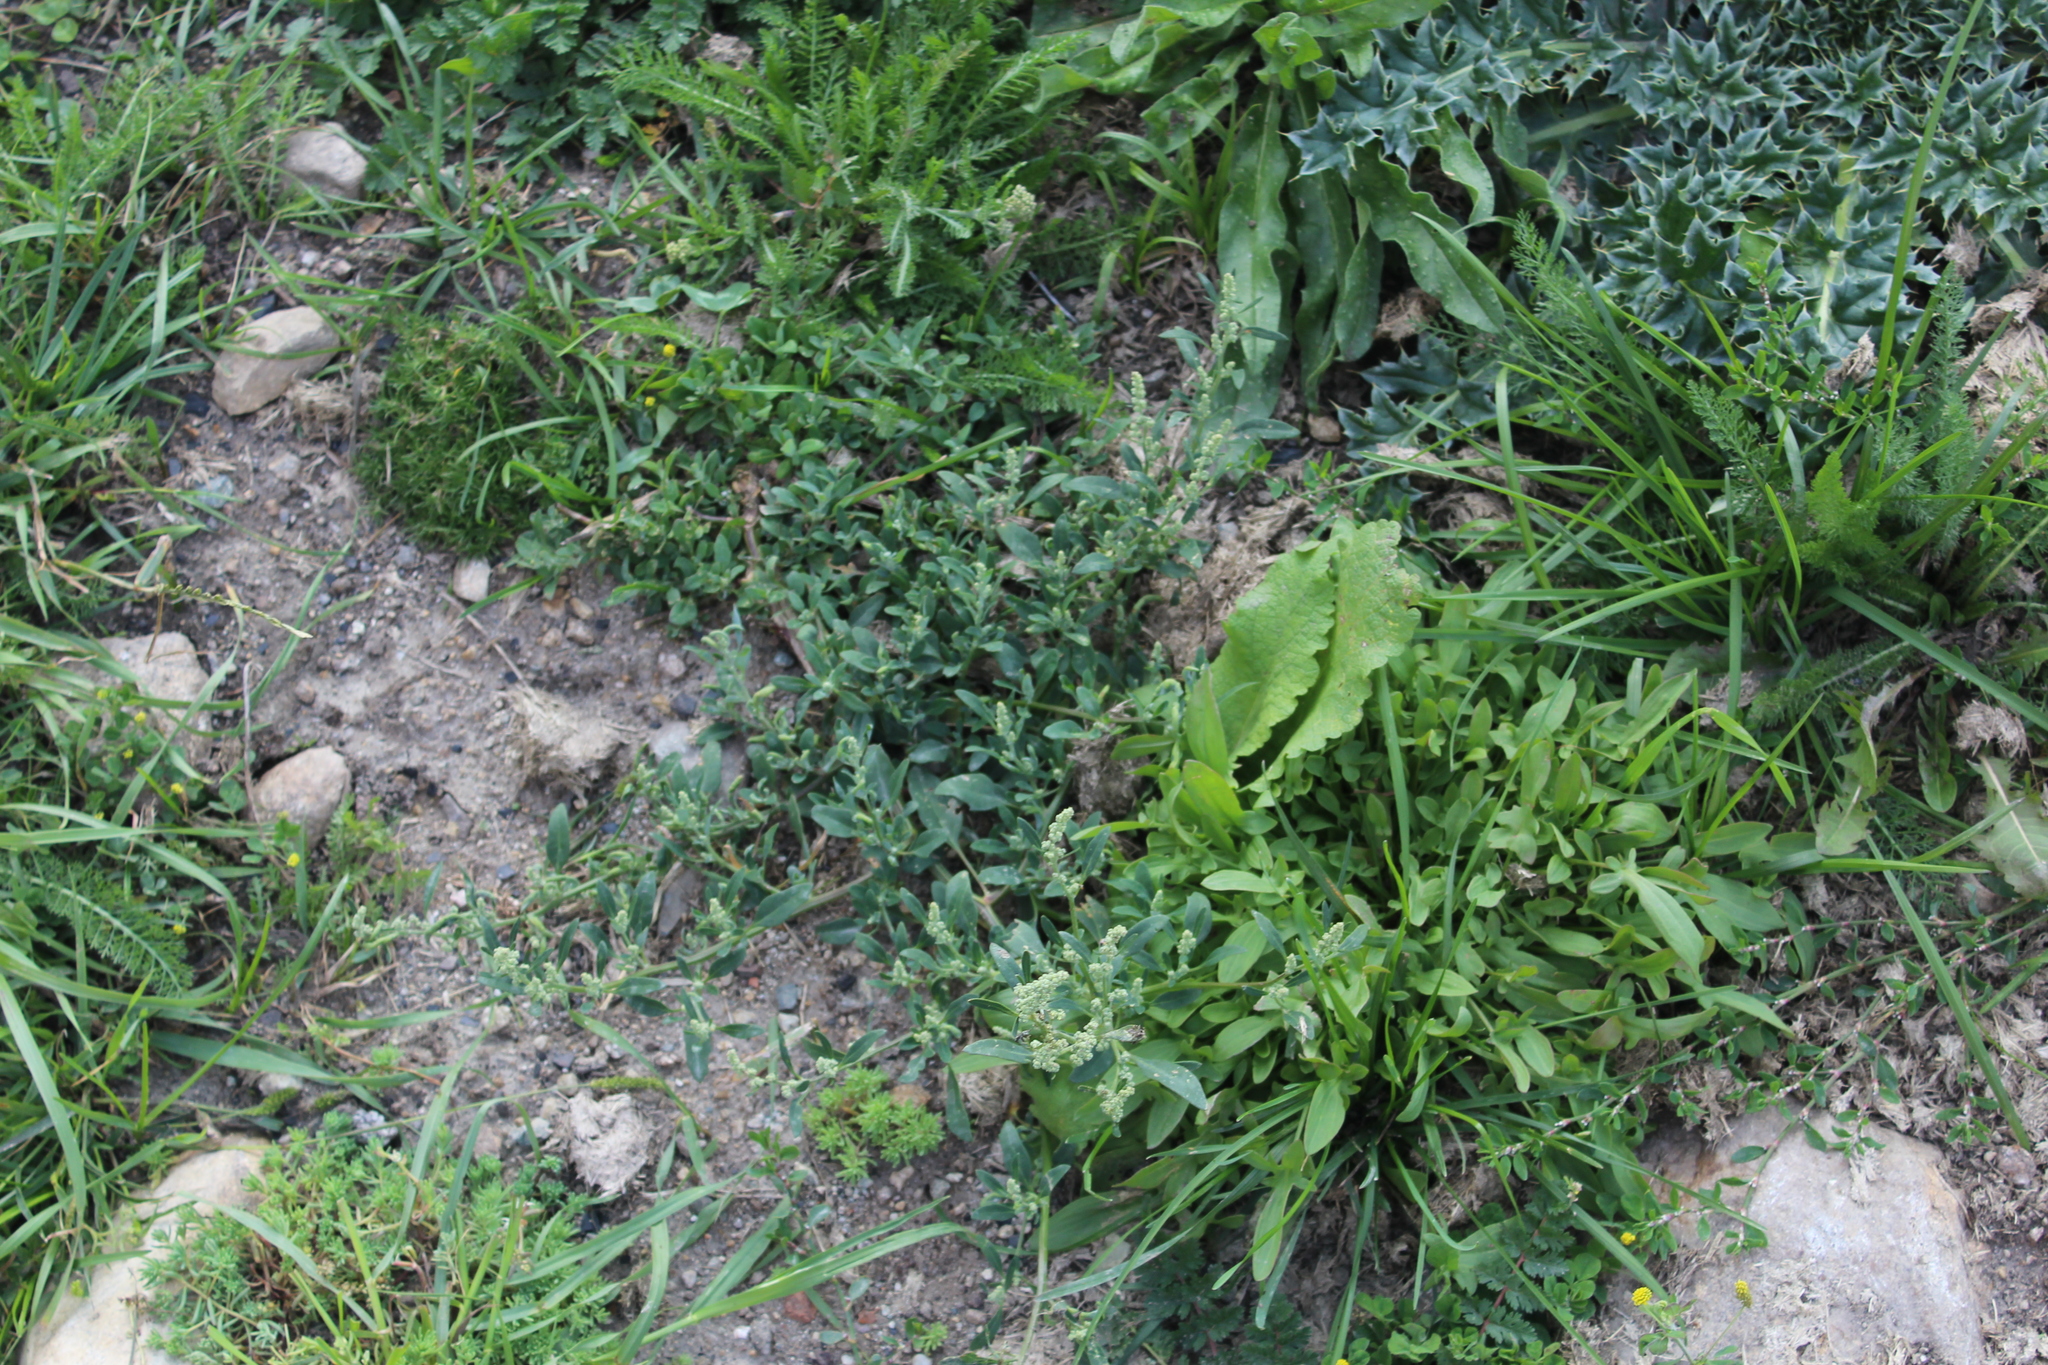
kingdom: Plantae
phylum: Tracheophyta
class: Magnoliopsida
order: Caryophyllales
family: Polygonaceae
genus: Rumex
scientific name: Rumex acetosella
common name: Common sheep sorrel
